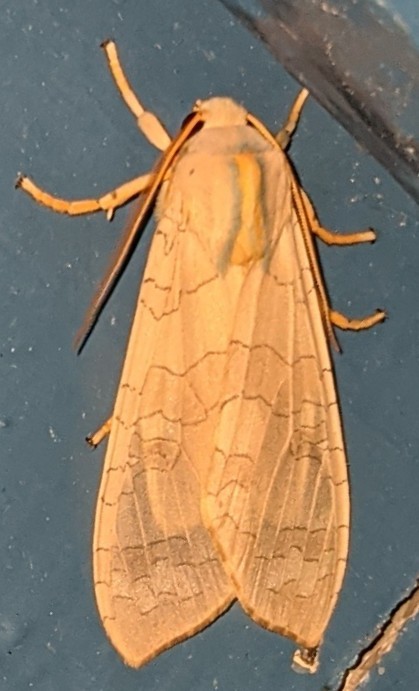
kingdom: Animalia
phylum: Arthropoda
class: Insecta
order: Lepidoptera
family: Erebidae
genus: Halysidota
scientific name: Halysidota tessellaris
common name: Banded tussock moth
